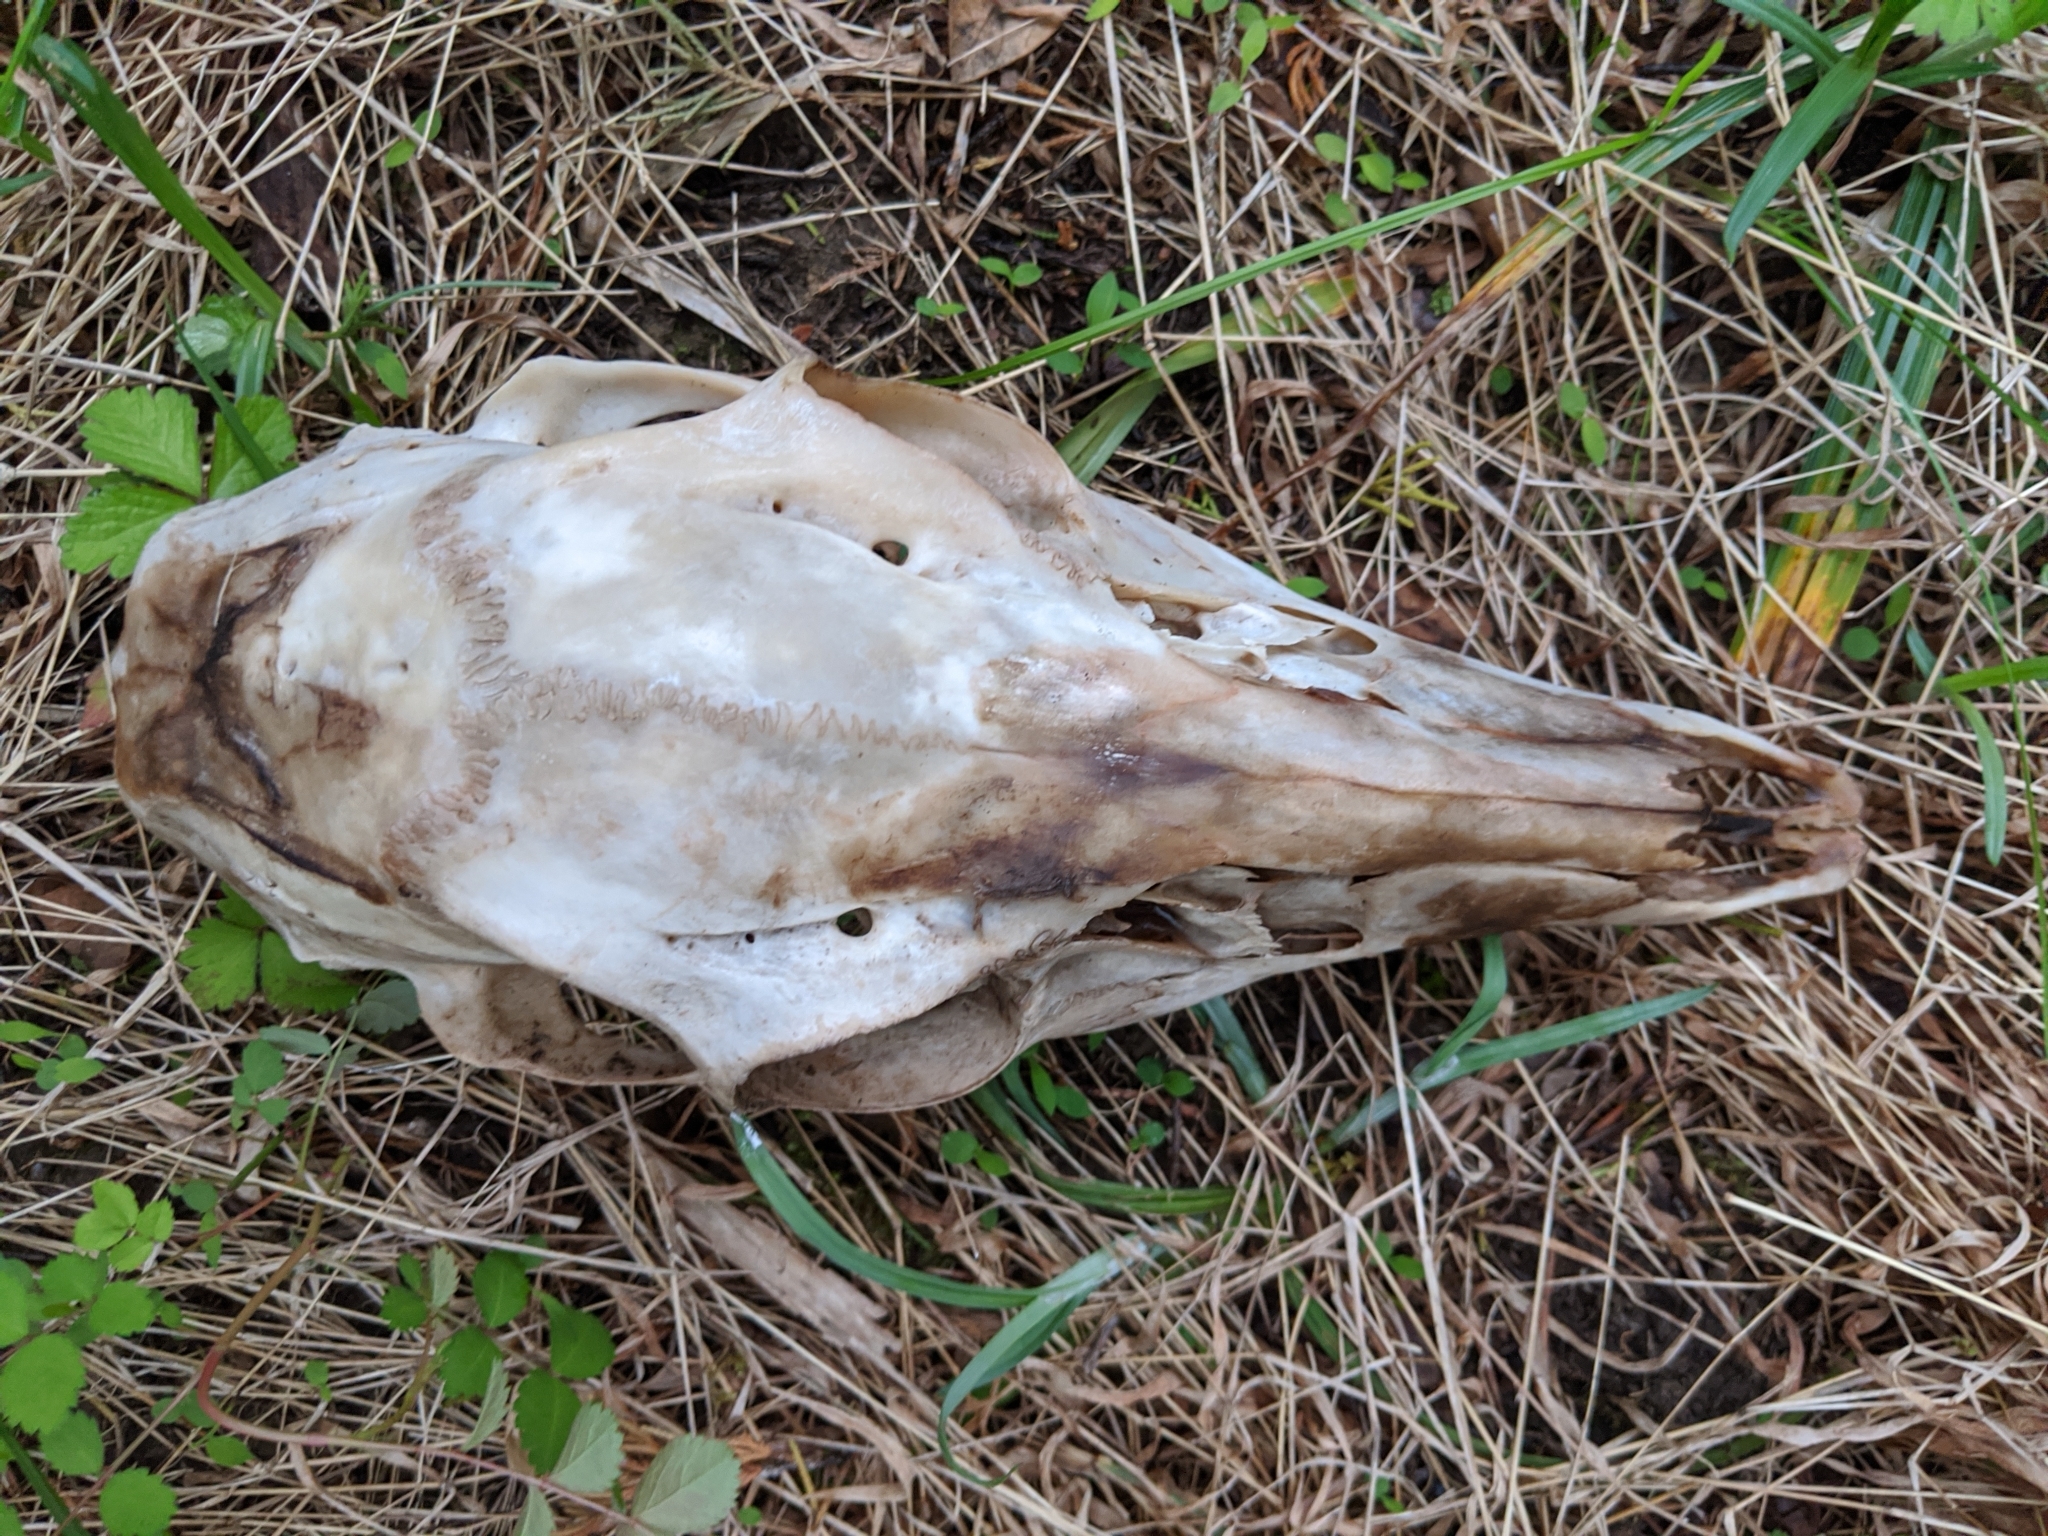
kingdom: Animalia
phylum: Chordata
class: Mammalia
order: Artiodactyla
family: Cervidae
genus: Odocoileus
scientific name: Odocoileus virginianus
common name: White-tailed deer
